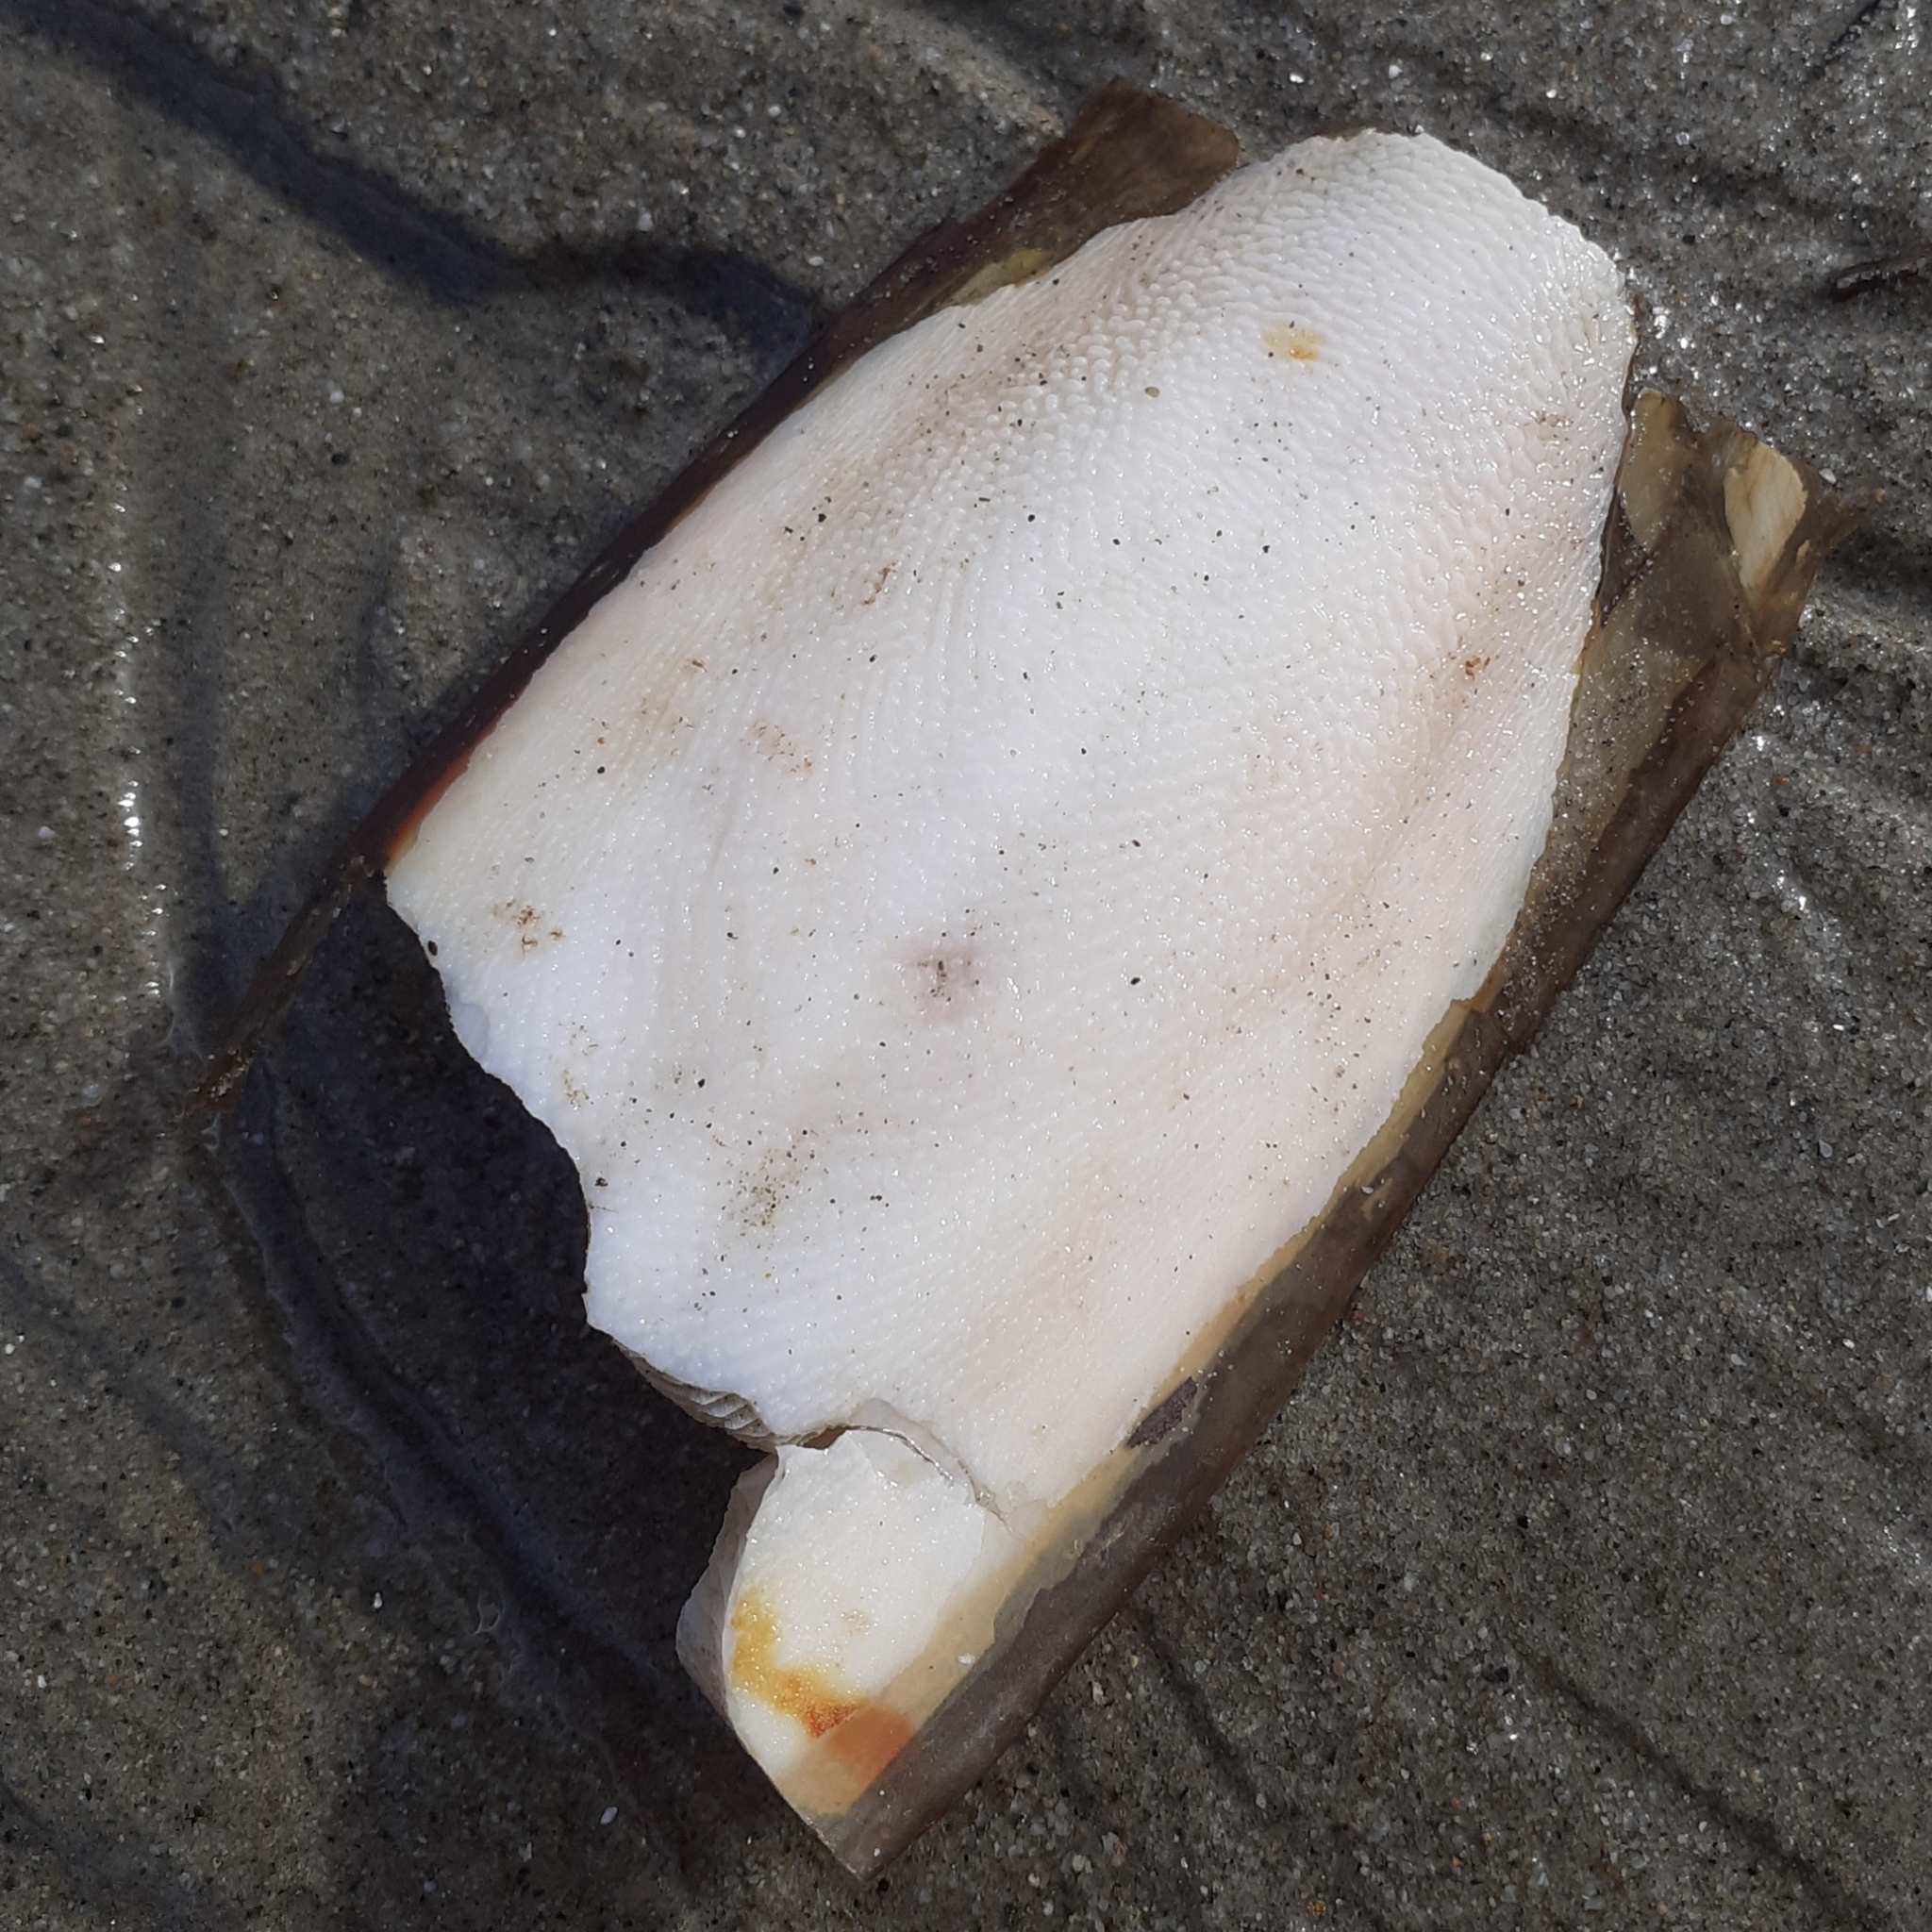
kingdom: Animalia
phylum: Mollusca
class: Cephalopoda
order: Sepiida
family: Sepiidae
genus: Sepia
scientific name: Sepia officinalis
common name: Common cuttlefish
